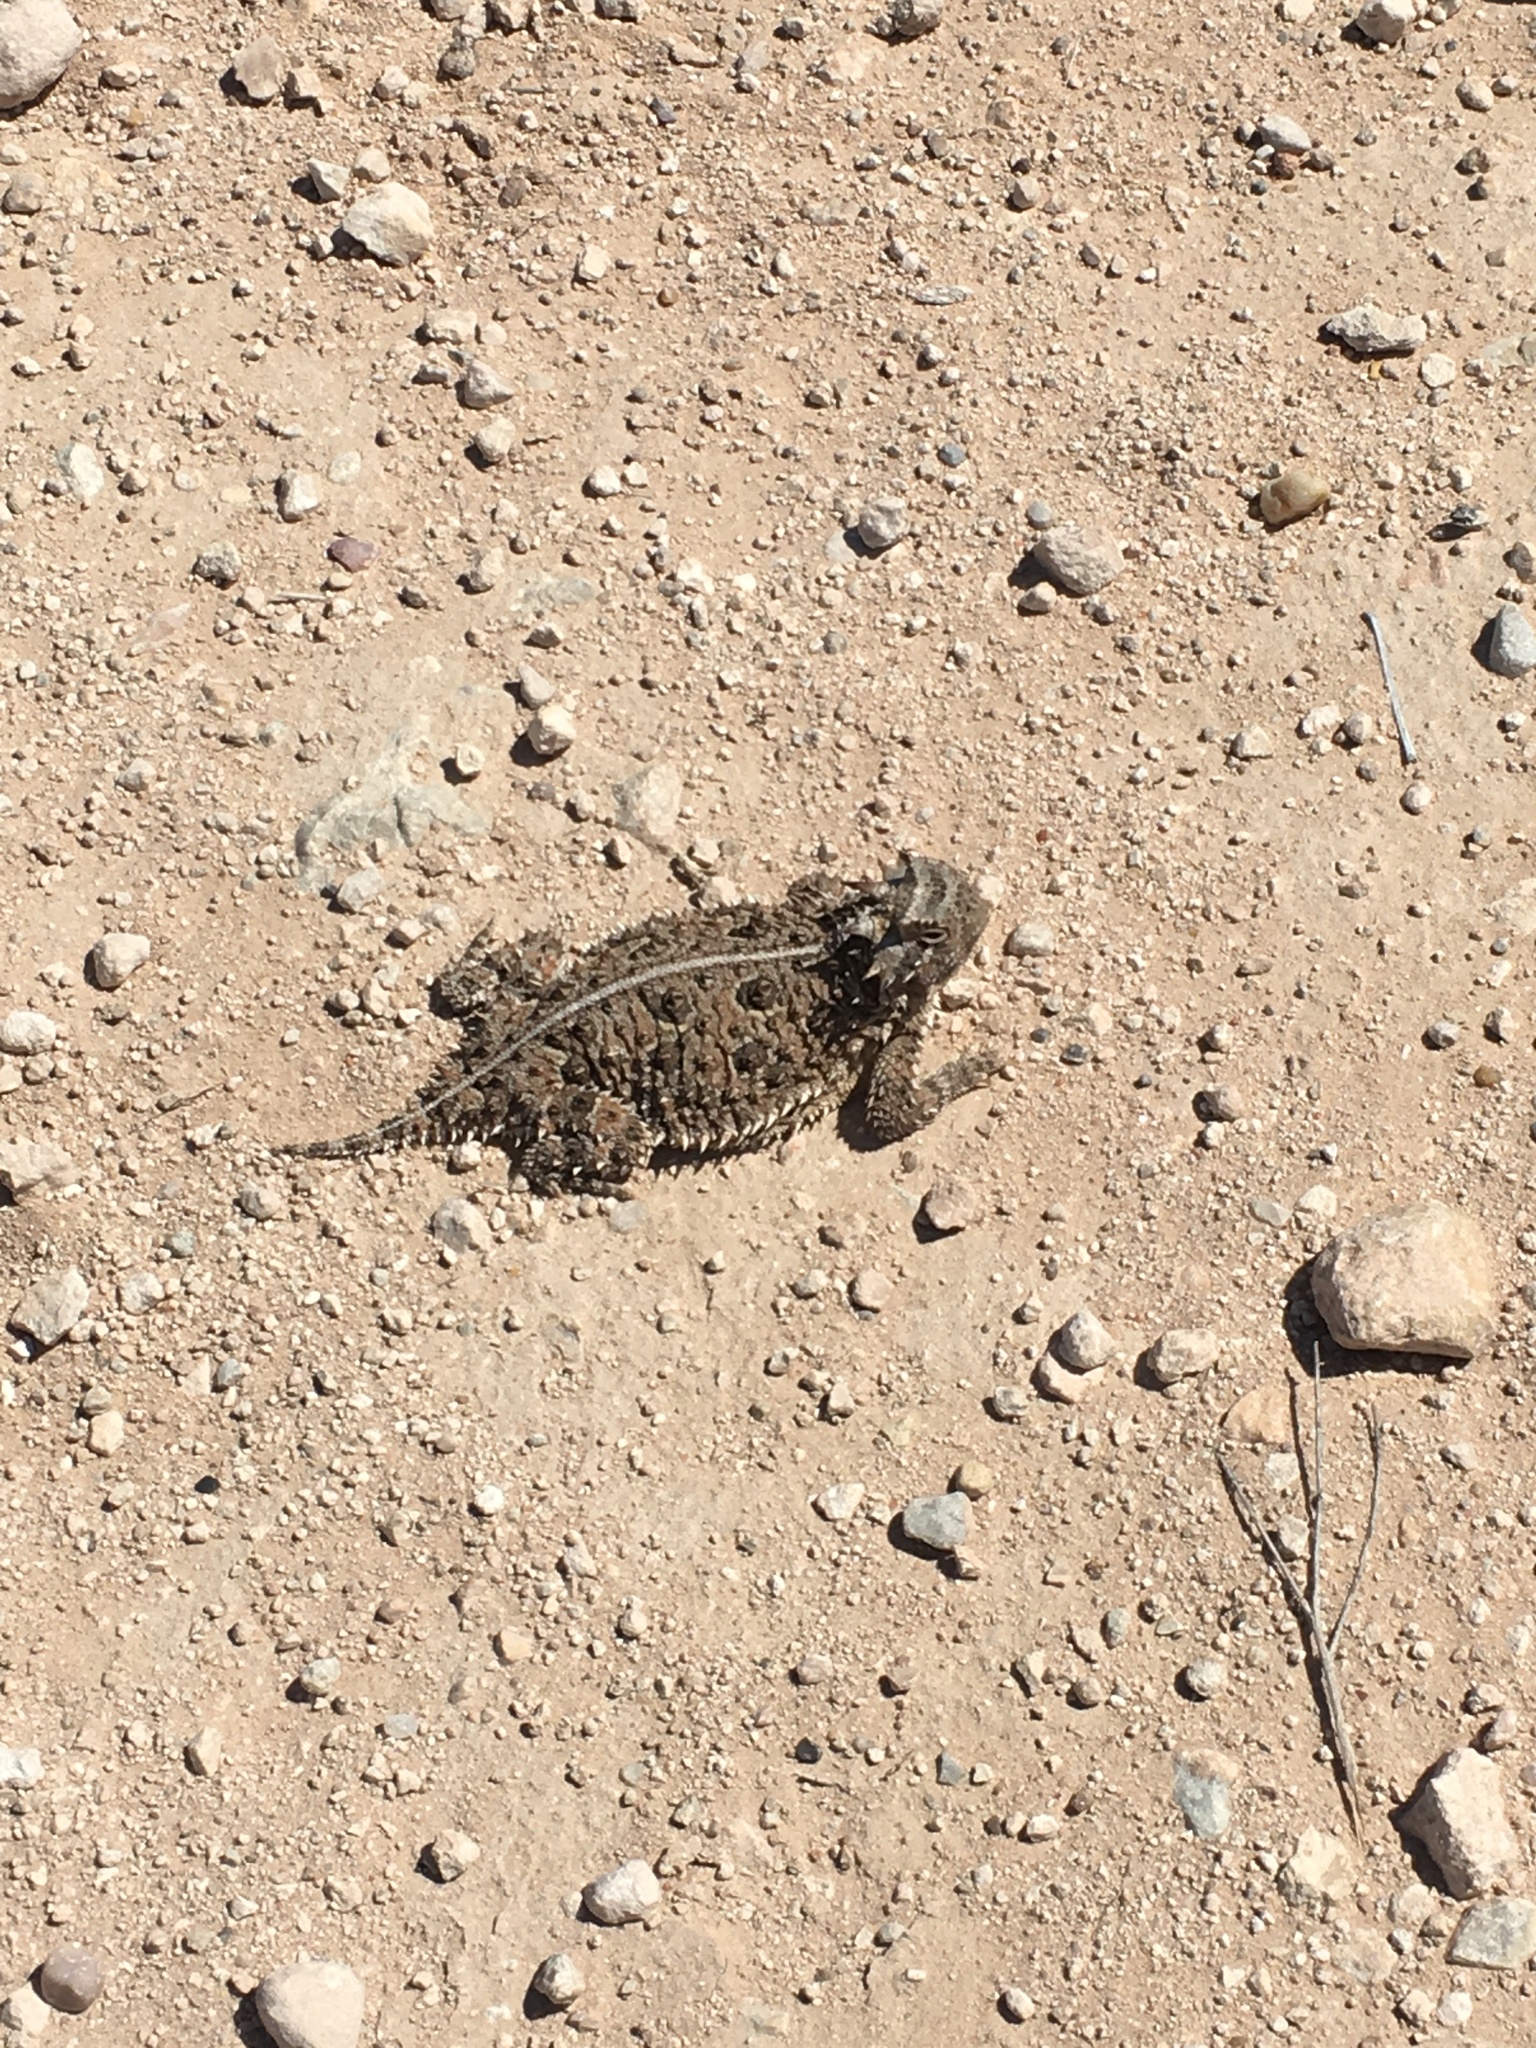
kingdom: Animalia
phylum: Chordata
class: Squamata
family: Phrynosomatidae
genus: Phrynosoma
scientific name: Phrynosoma cornutum
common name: Texas horned lizard
